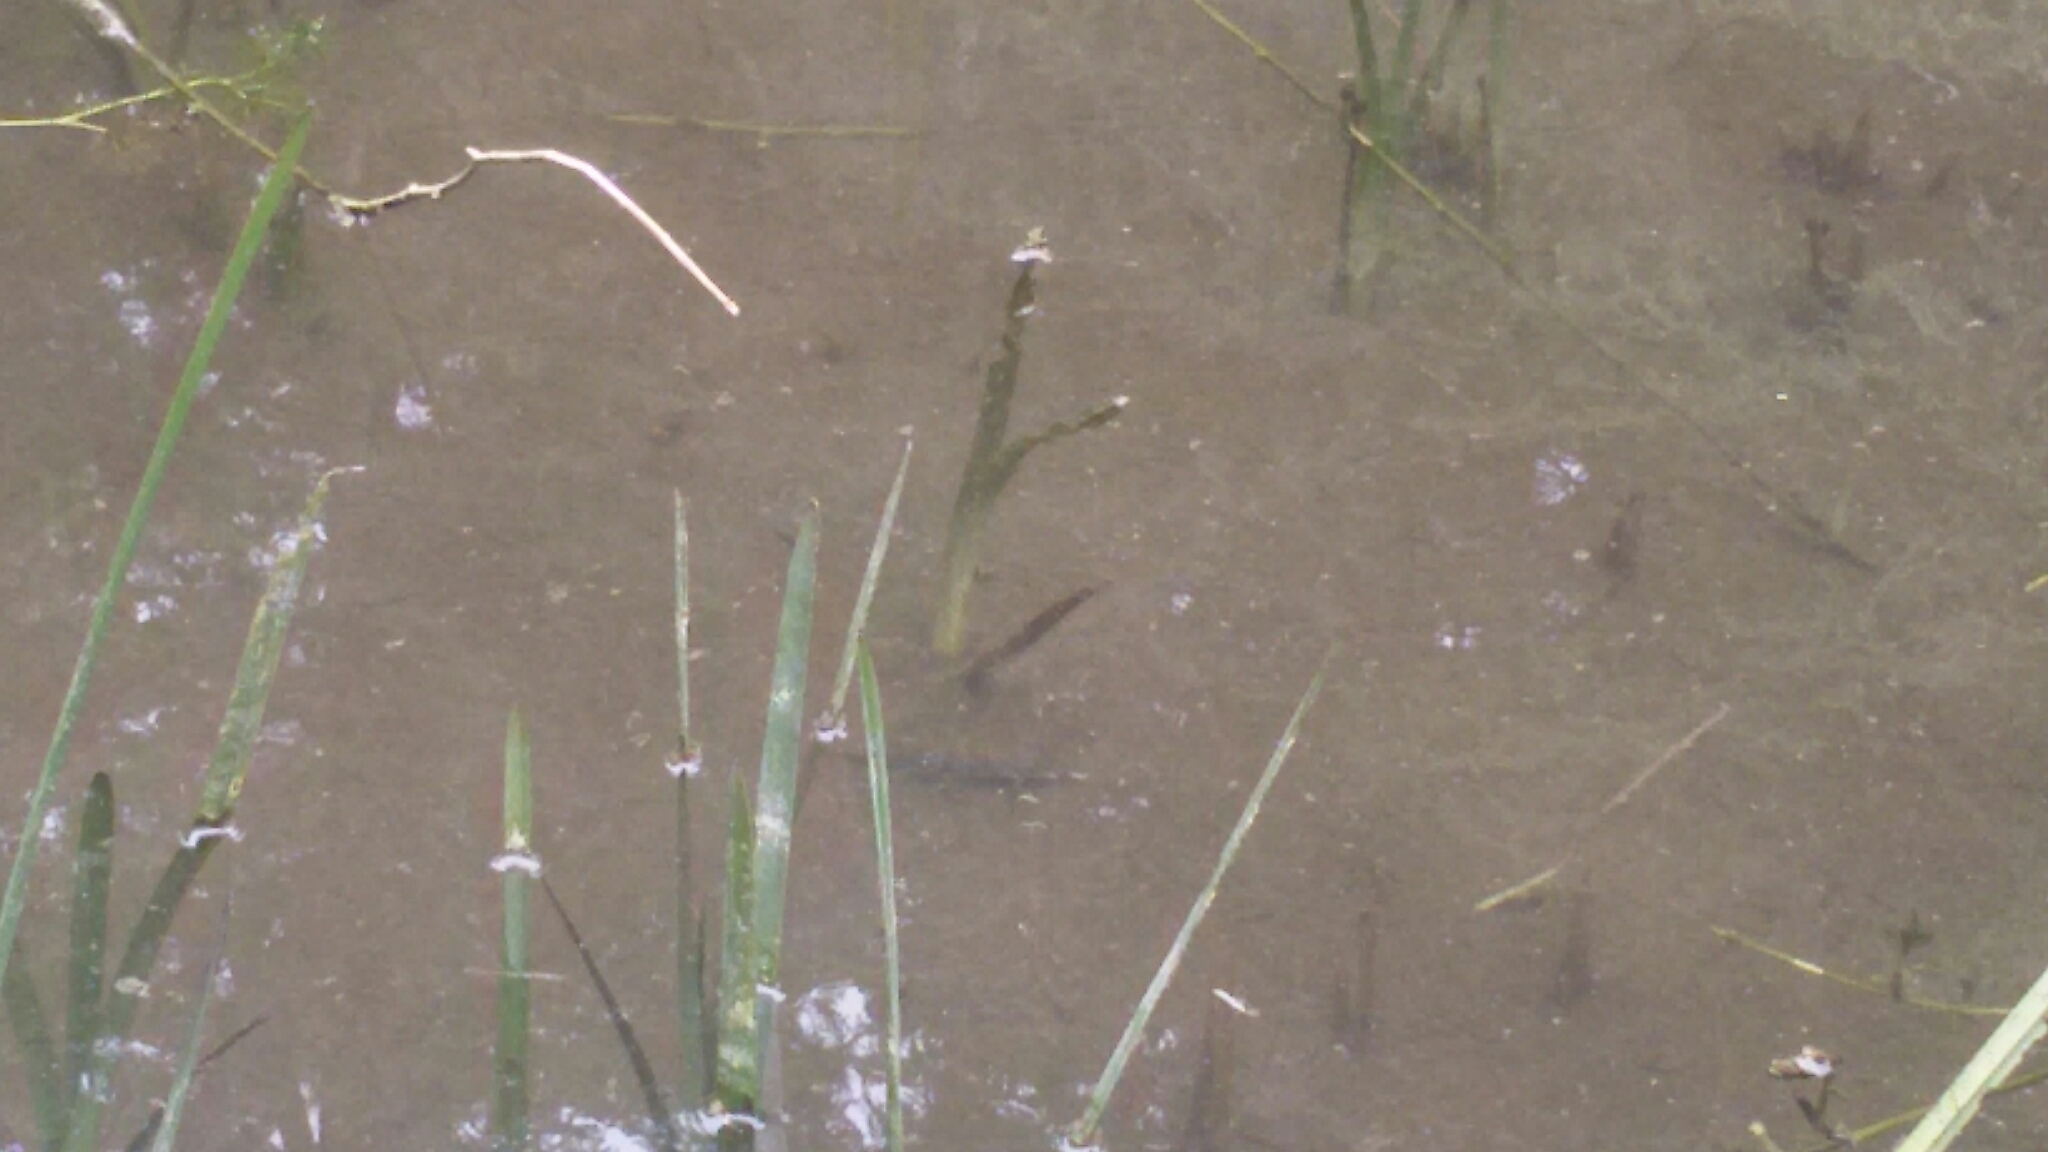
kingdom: Animalia
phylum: Chordata
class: Amphibia
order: Caudata
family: Salamandridae
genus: Ichthyosaura
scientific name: Ichthyosaura alpestris
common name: Alpine newt
